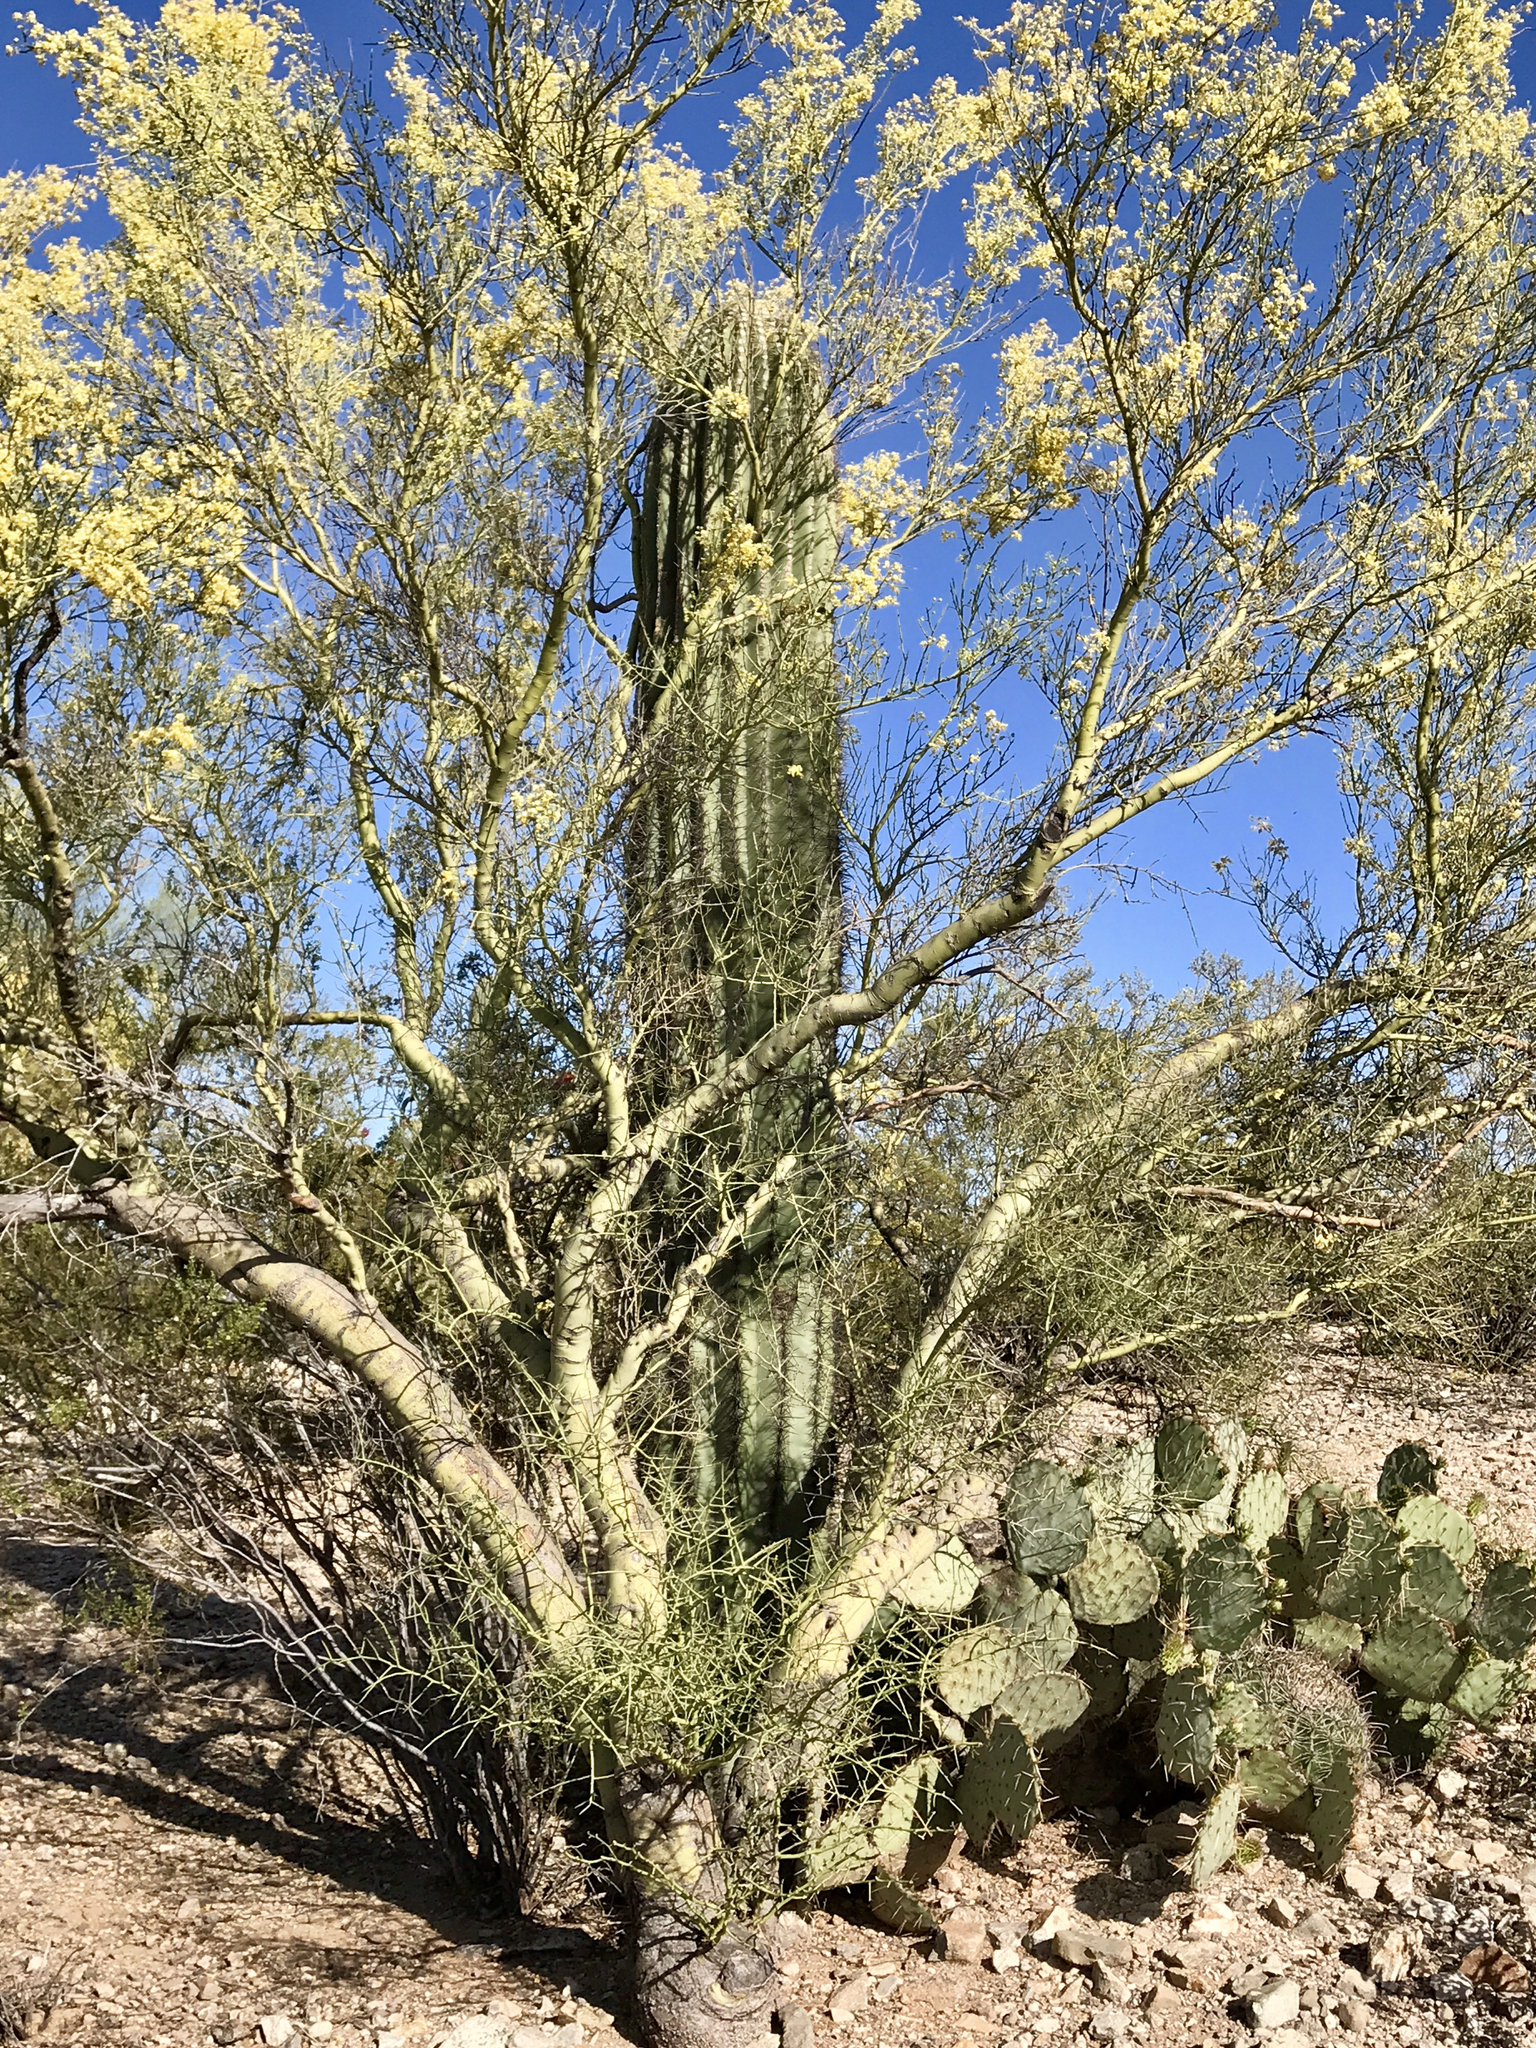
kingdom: Plantae
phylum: Tracheophyta
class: Magnoliopsida
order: Caryophyllales
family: Cactaceae
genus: Carnegiea
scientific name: Carnegiea gigantea
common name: Saguaro
